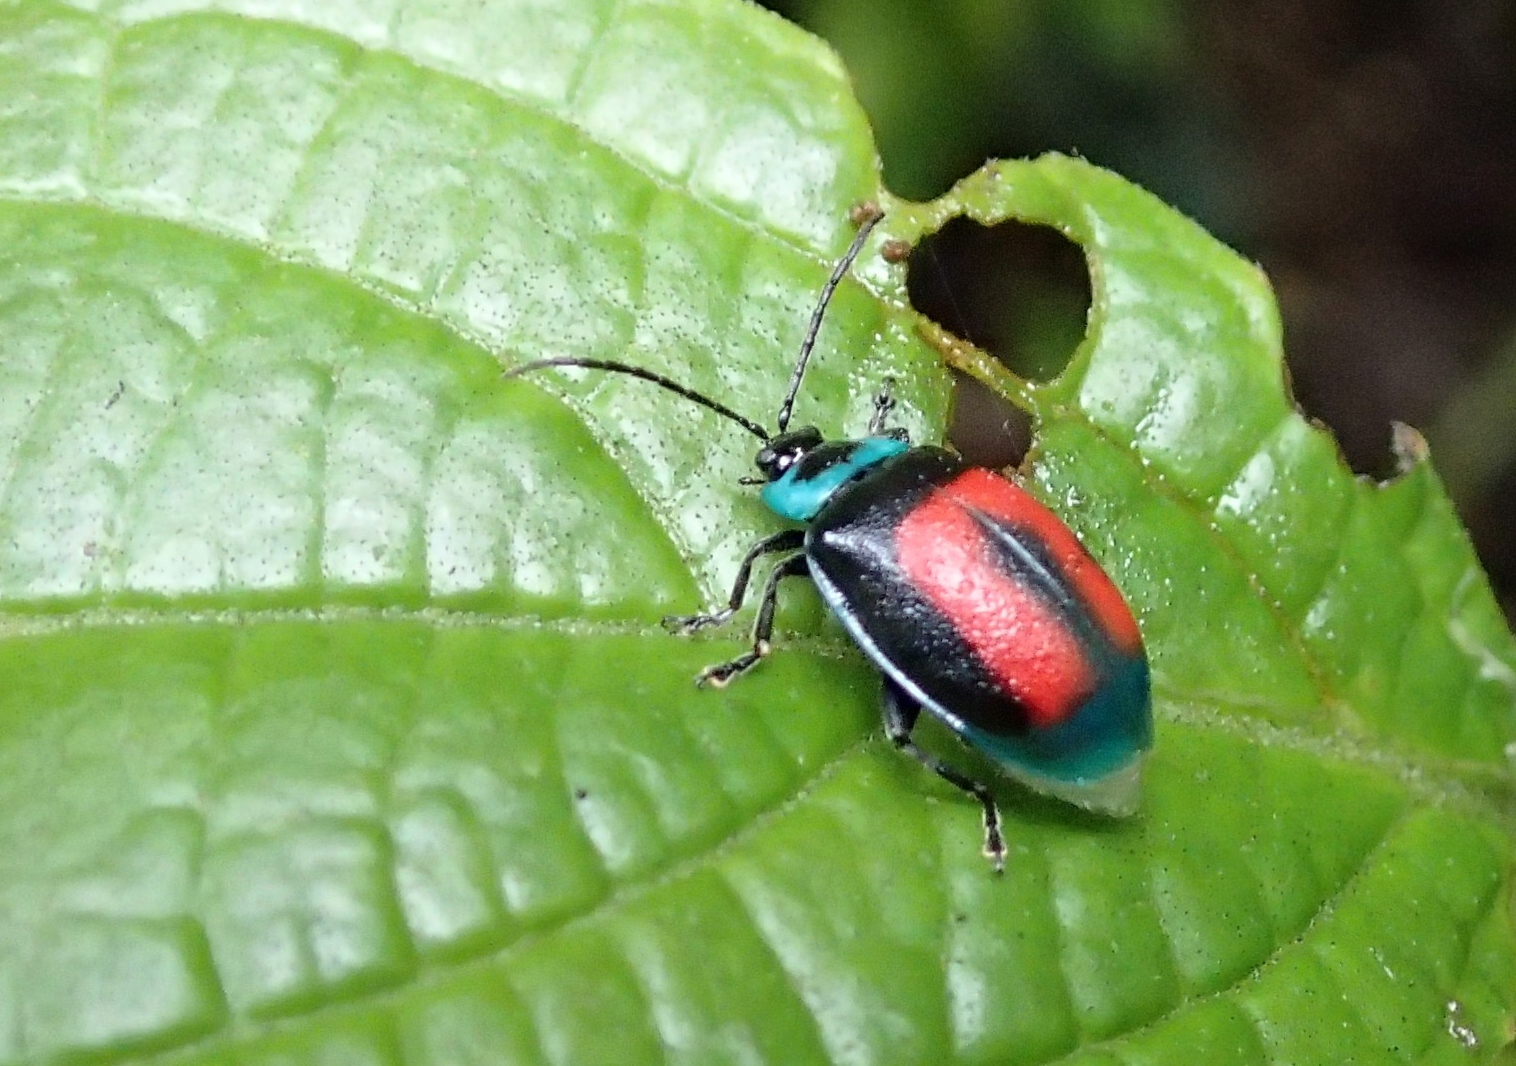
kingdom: Animalia
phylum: Arthropoda
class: Insecta
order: Coleoptera
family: Chrysomelidae
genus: Aspicela
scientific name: Aspicela
